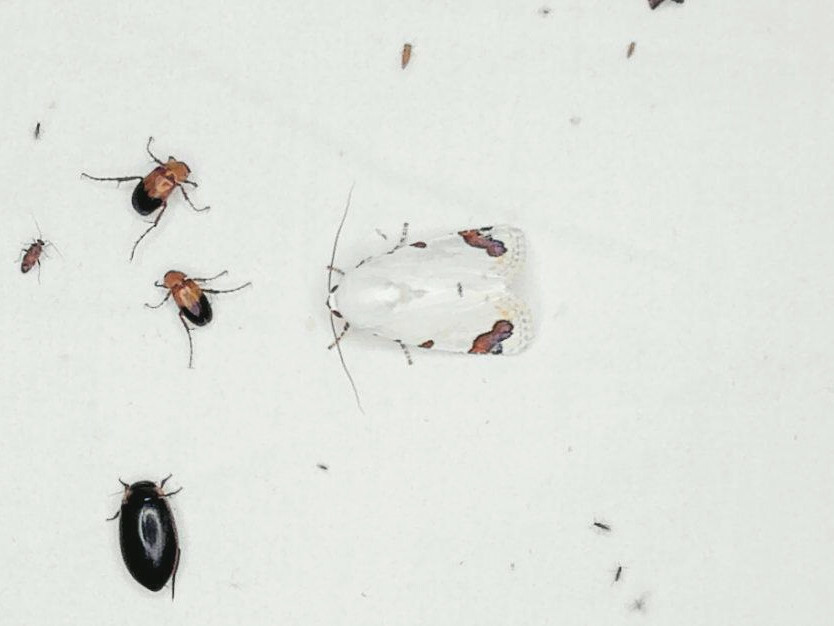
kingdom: Animalia
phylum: Arthropoda
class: Insecta
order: Lepidoptera
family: Noctuidae
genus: Chasmina
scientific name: Chasmina pulchra
